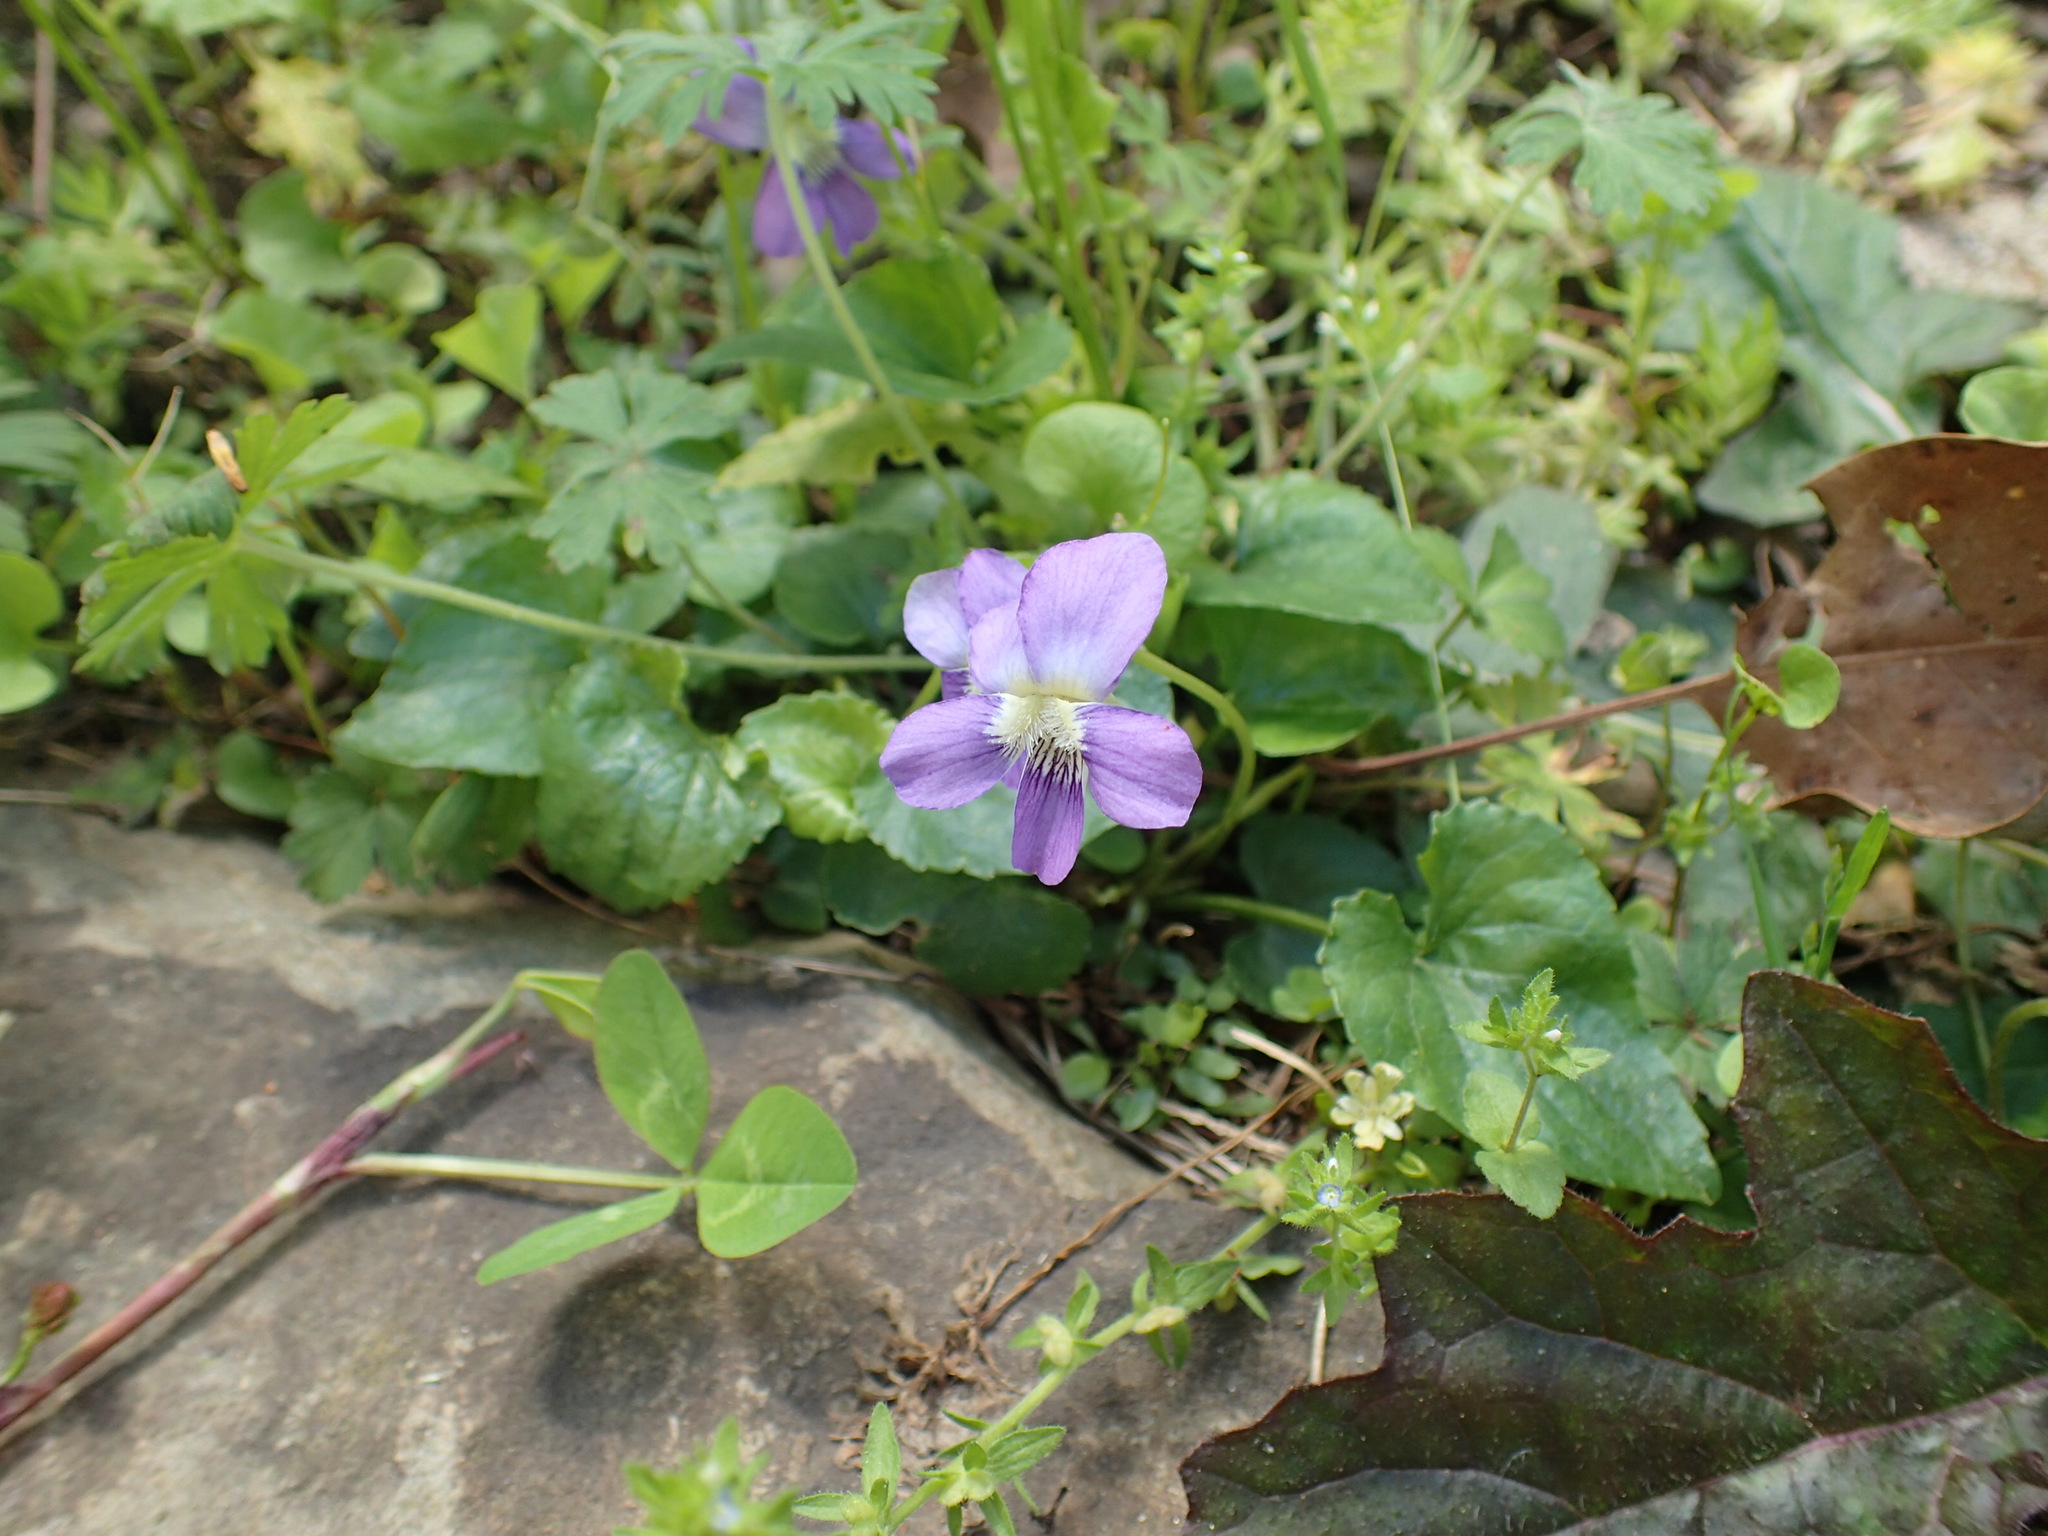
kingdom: Plantae
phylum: Tracheophyta
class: Magnoliopsida
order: Malpighiales
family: Violaceae
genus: Viola
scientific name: Viola sororia
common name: Dooryard violet
